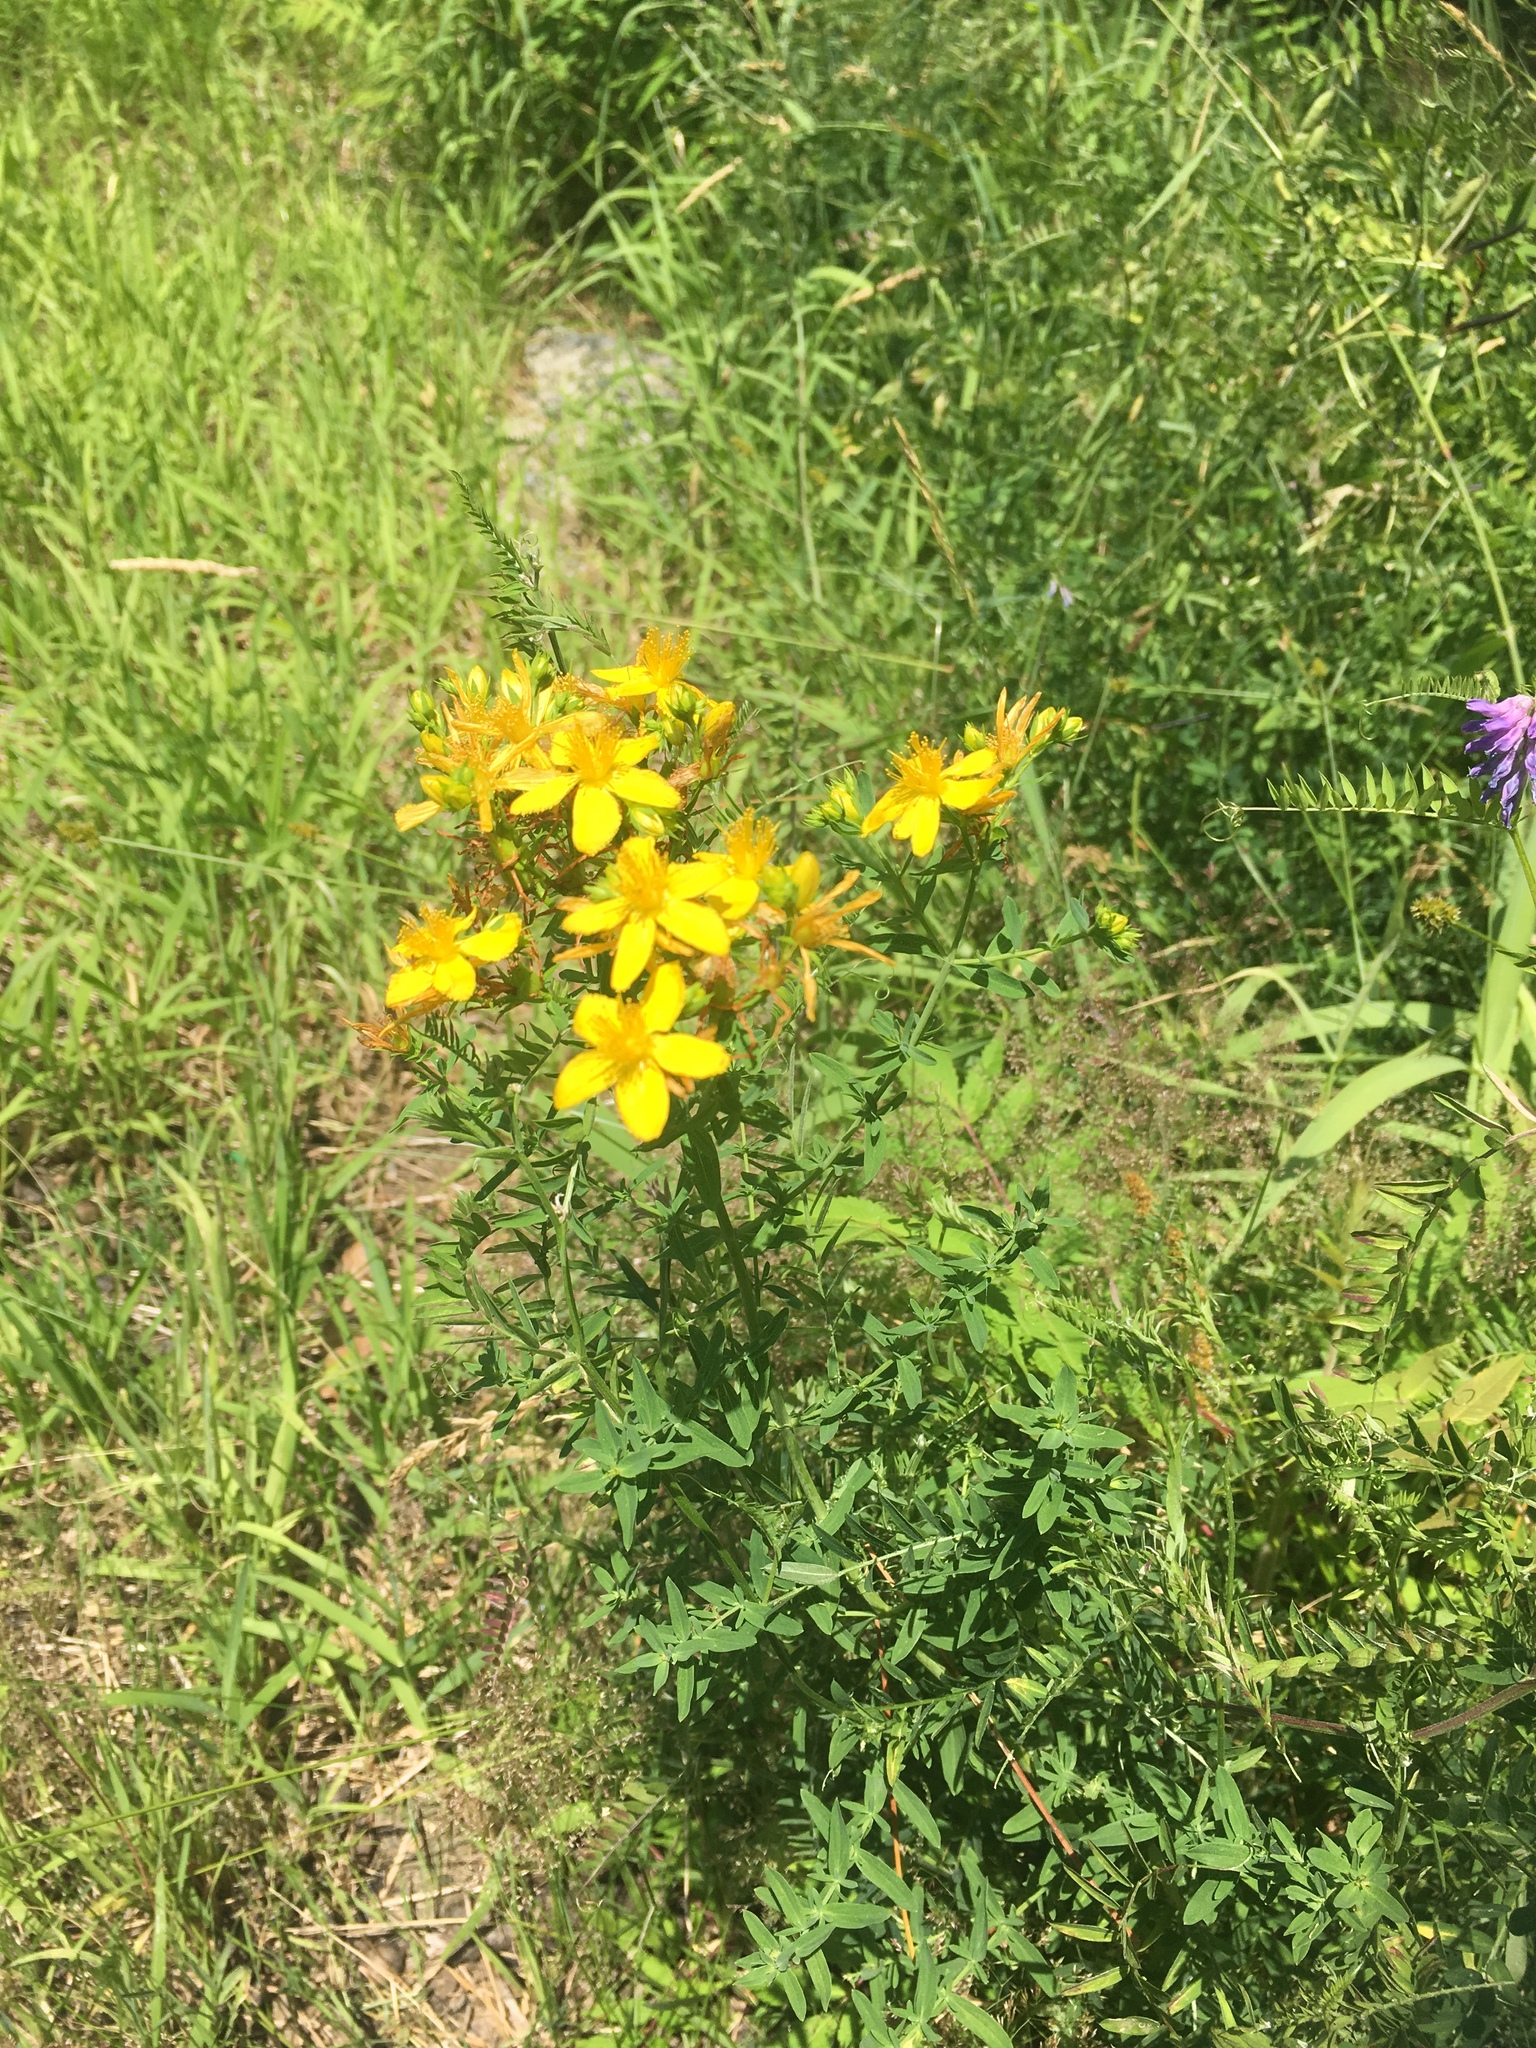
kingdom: Plantae
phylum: Tracheophyta
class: Magnoliopsida
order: Malpighiales
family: Hypericaceae
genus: Hypericum
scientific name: Hypericum perforatum
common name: Common st. johnswort
